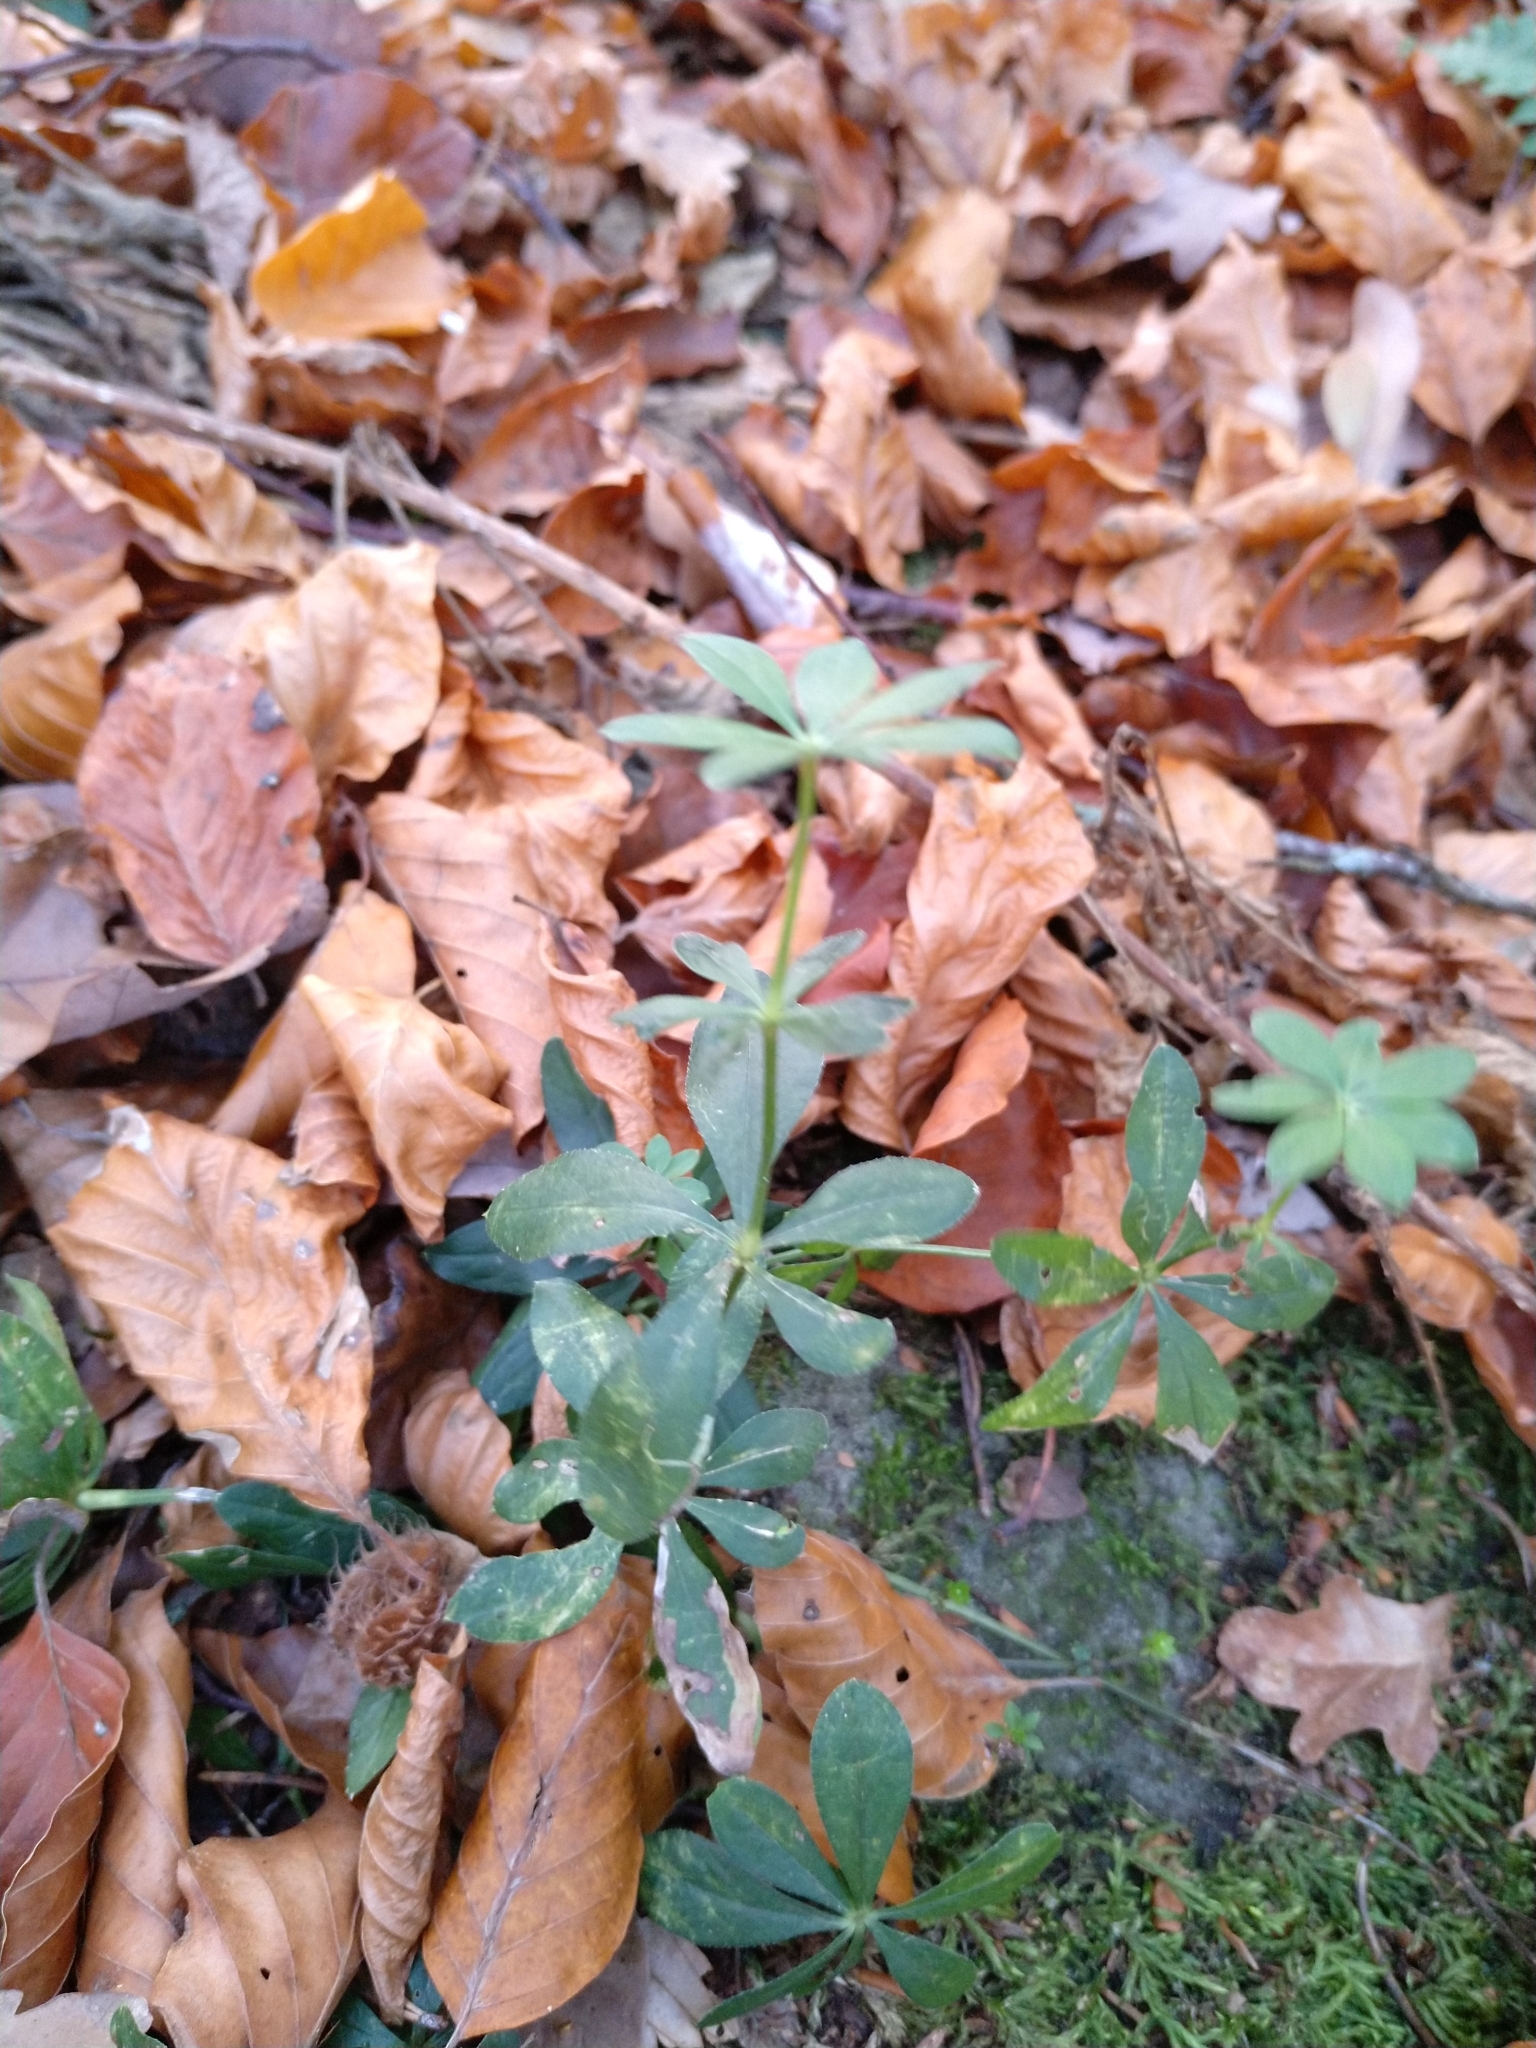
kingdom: Plantae
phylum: Tracheophyta
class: Magnoliopsida
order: Gentianales
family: Rubiaceae
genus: Galium
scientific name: Galium odoratum
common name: Sweet woodruff
